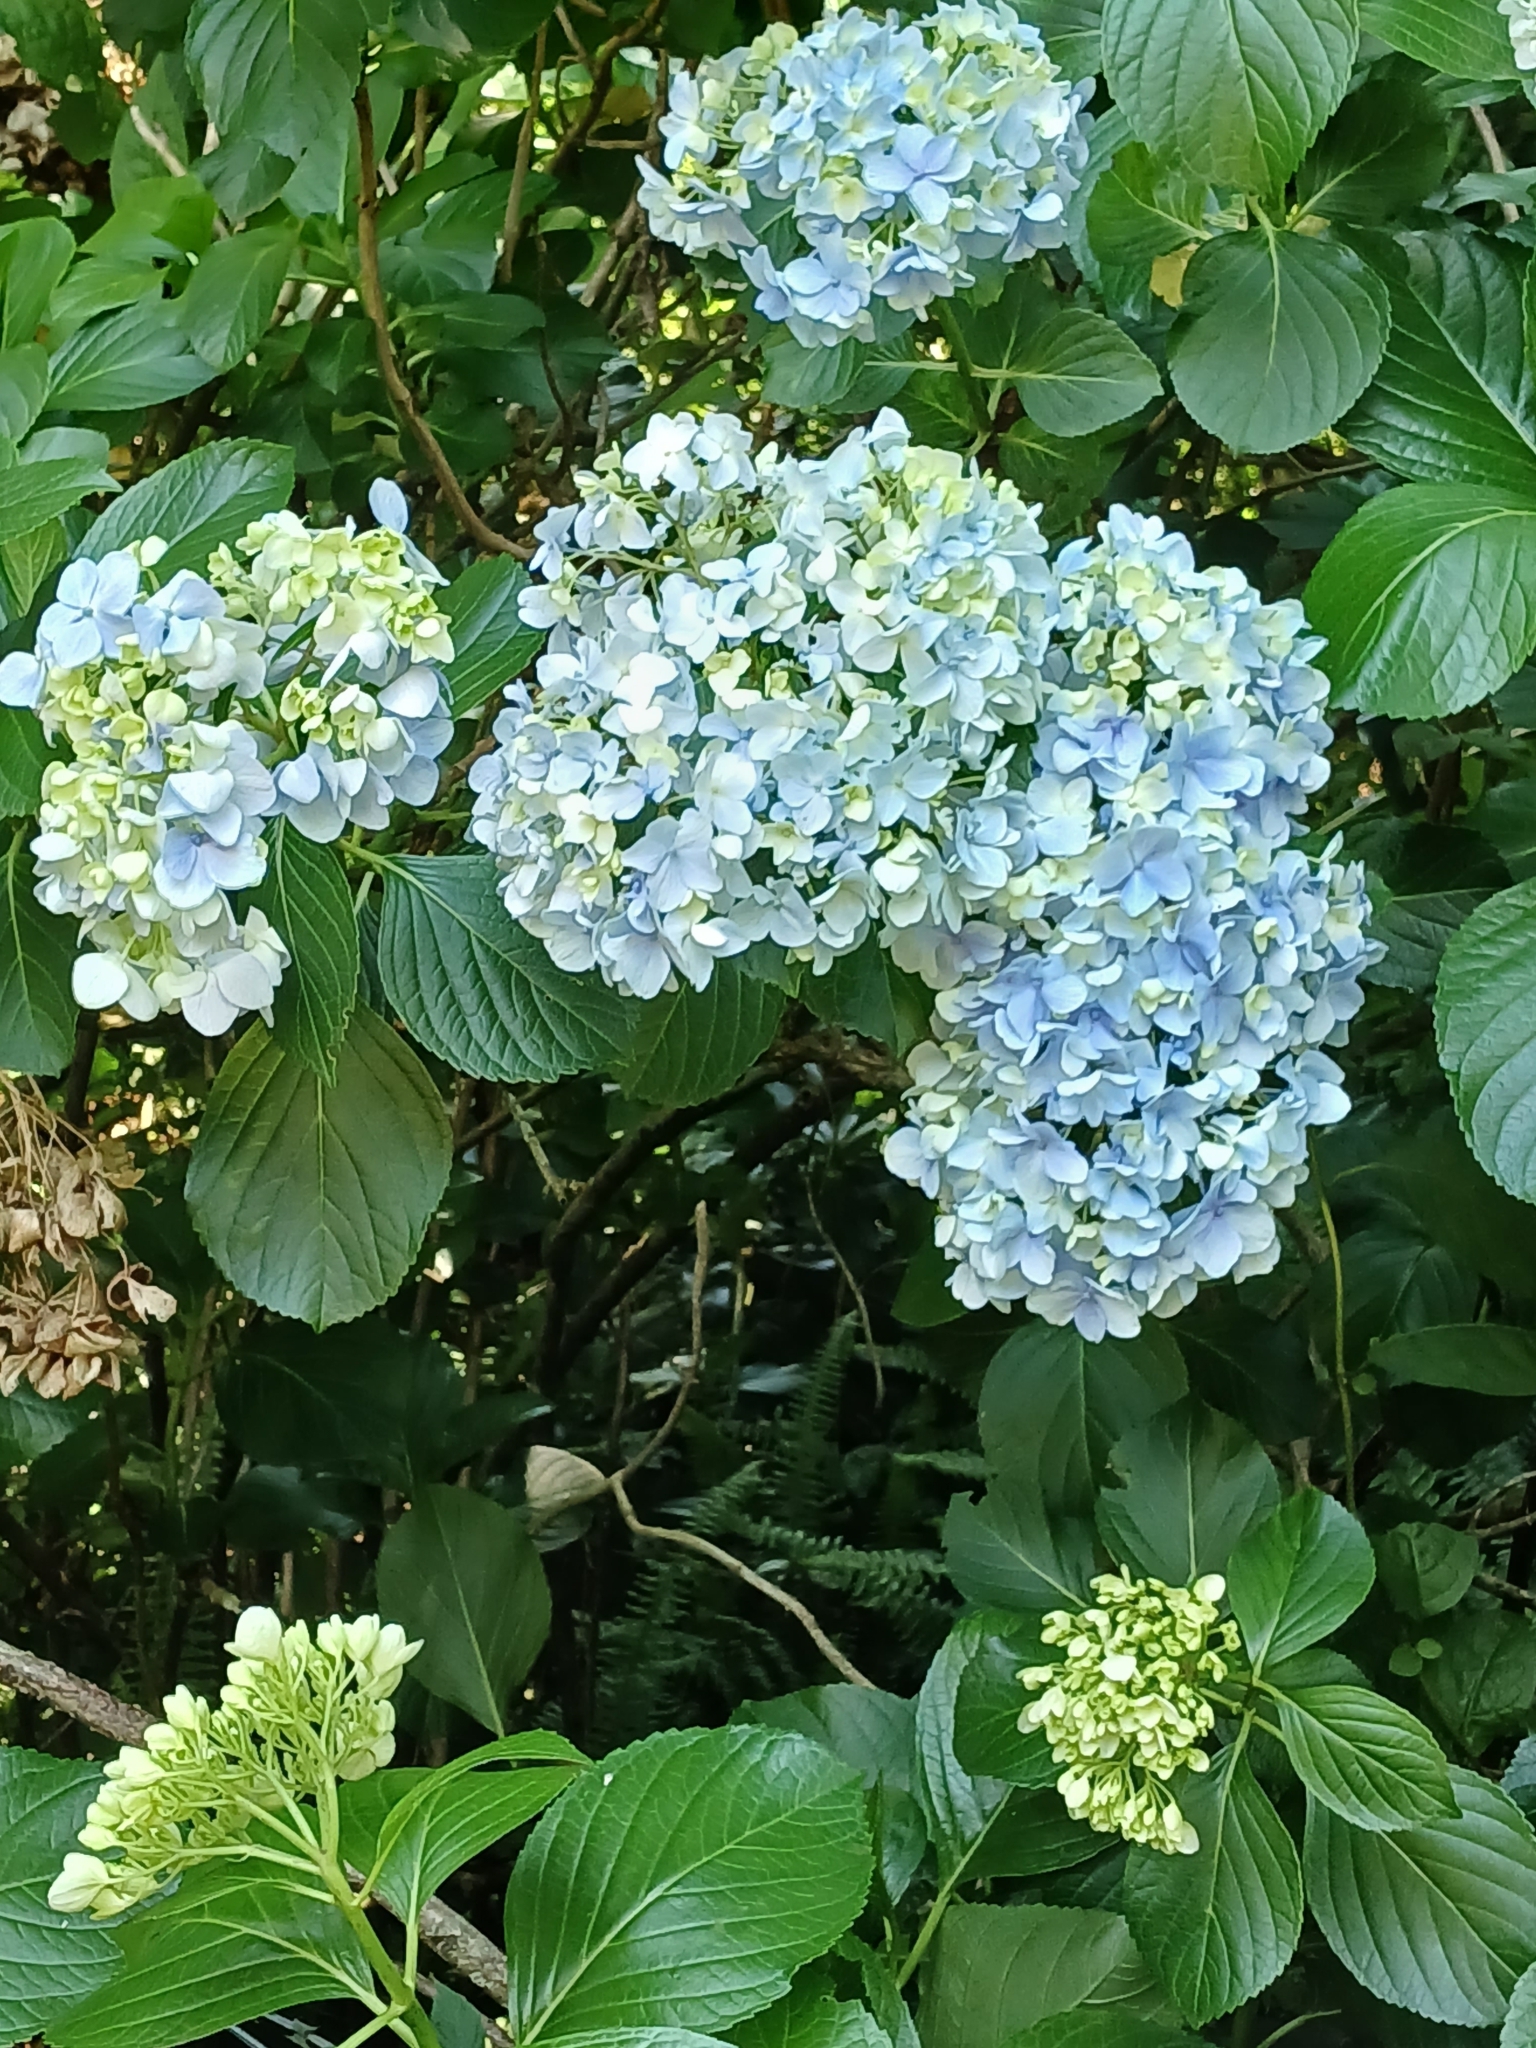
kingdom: Plantae
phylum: Tracheophyta
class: Magnoliopsida
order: Cornales
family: Hydrangeaceae
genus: Hydrangea
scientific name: Hydrangea macrophylla
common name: Hydrangea
